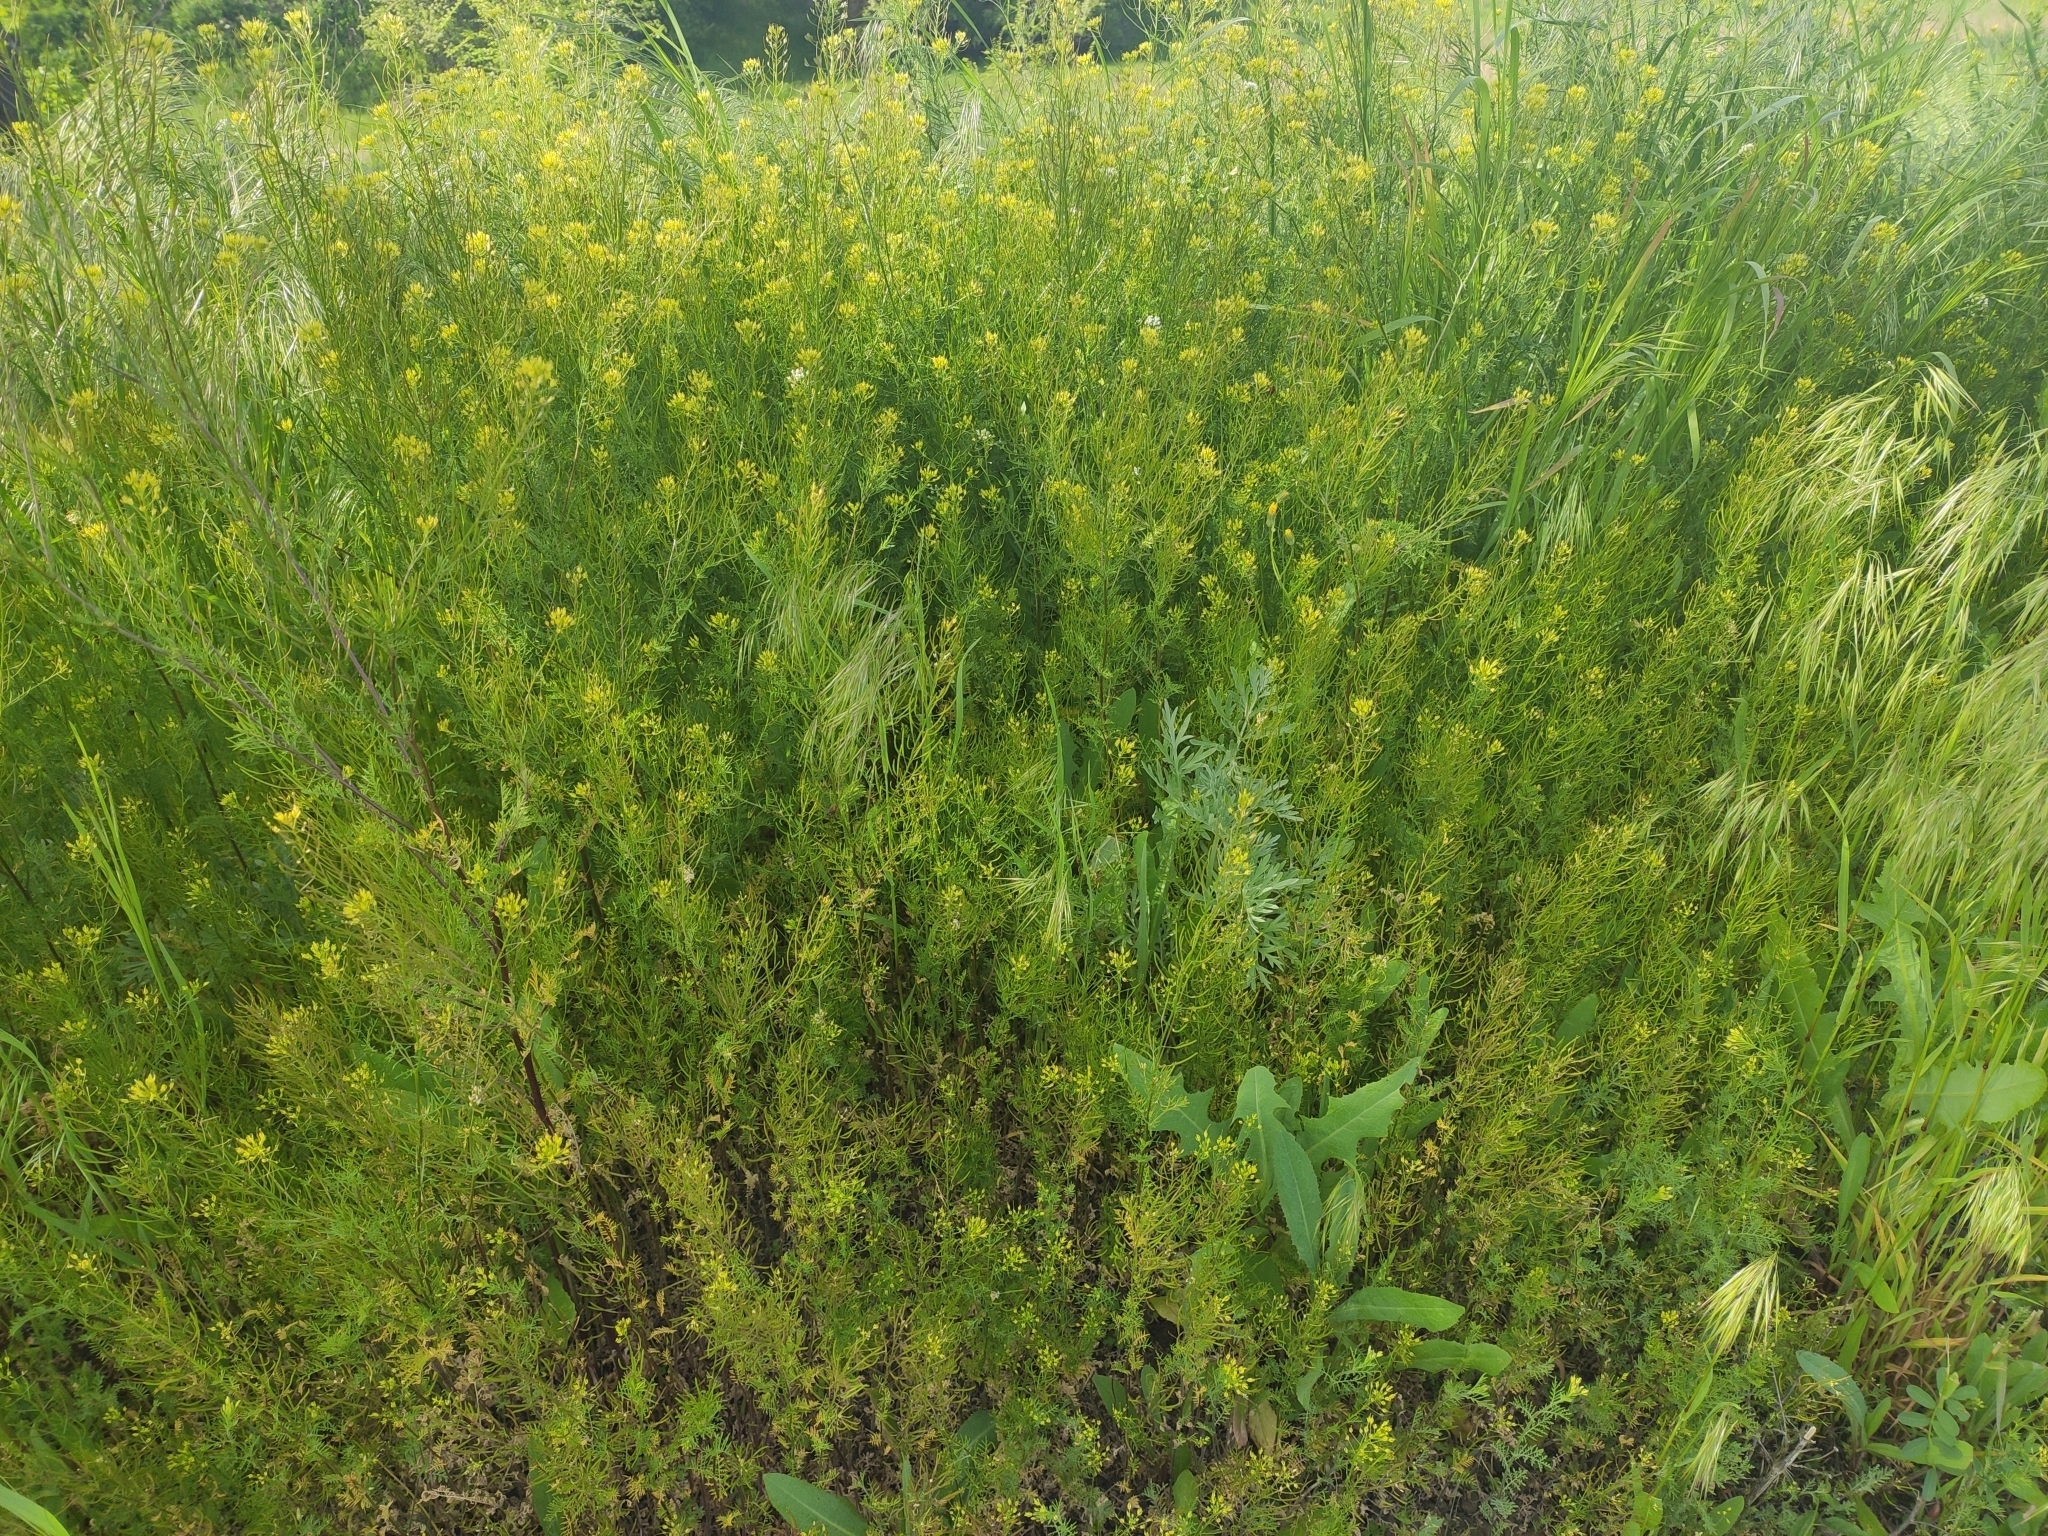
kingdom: Plantae
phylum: Tracheophyta
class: Magnoliopsida
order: Brassicales
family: Brassicaceae
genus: Descurainia
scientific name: Descurainia sophia
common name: Flixweed
